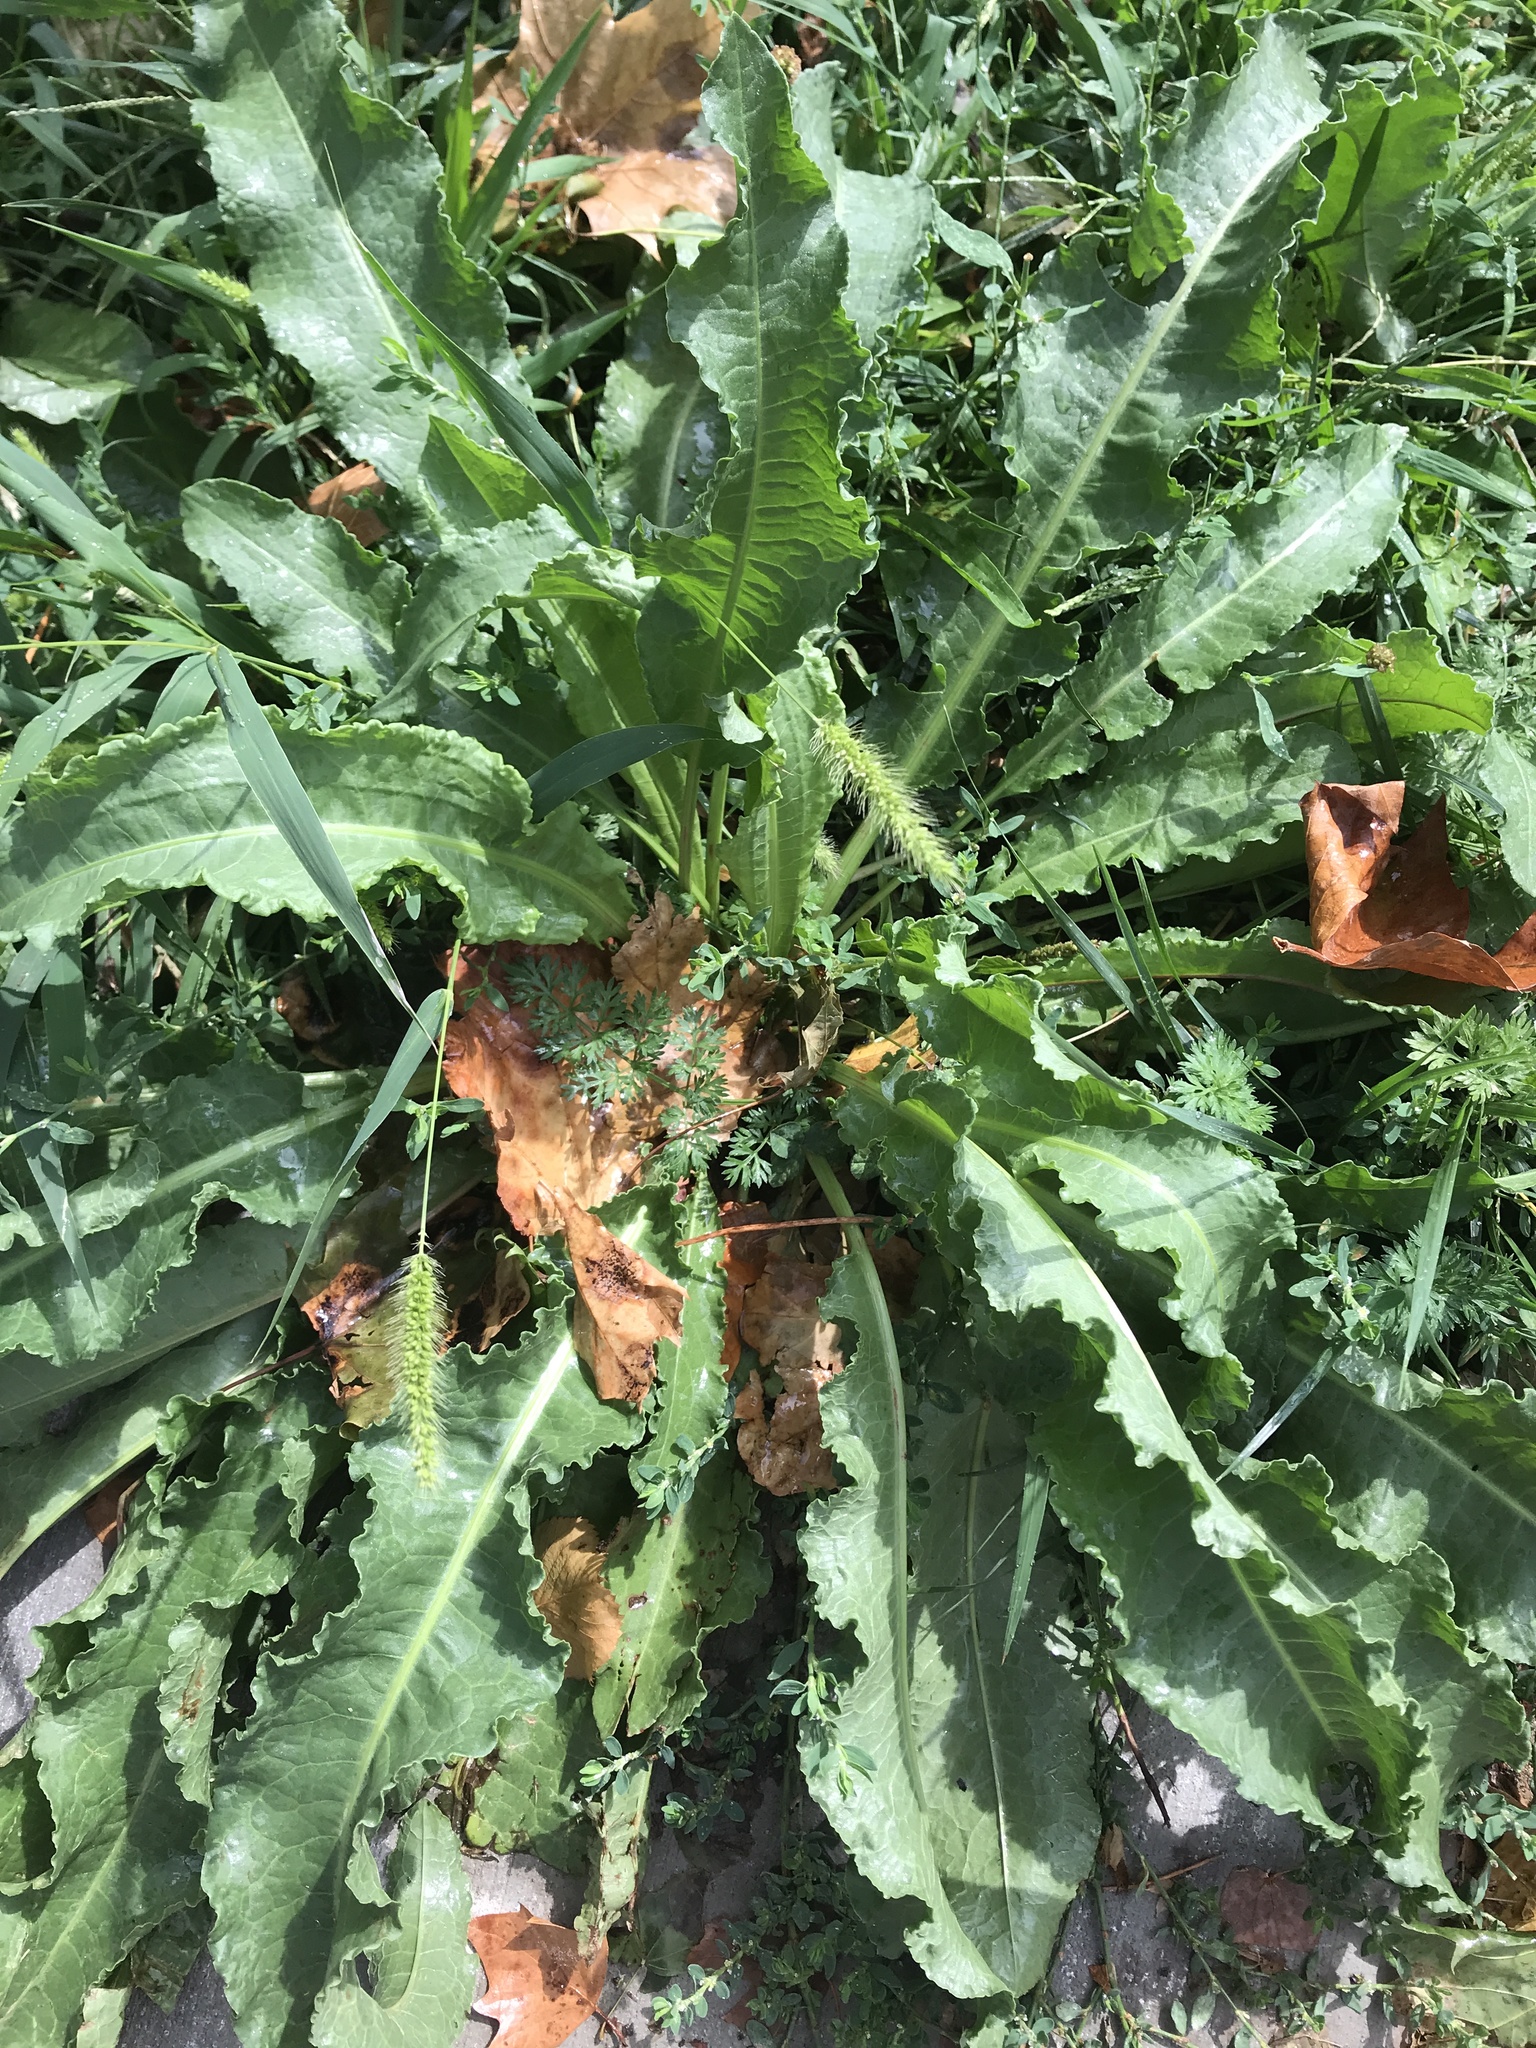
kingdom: Plantae
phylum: Tracheophyta
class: Magnoliopsida
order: Caryophyllales
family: Polygonaceae
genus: Rumex
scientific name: Rumex crispus
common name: Curled dock
